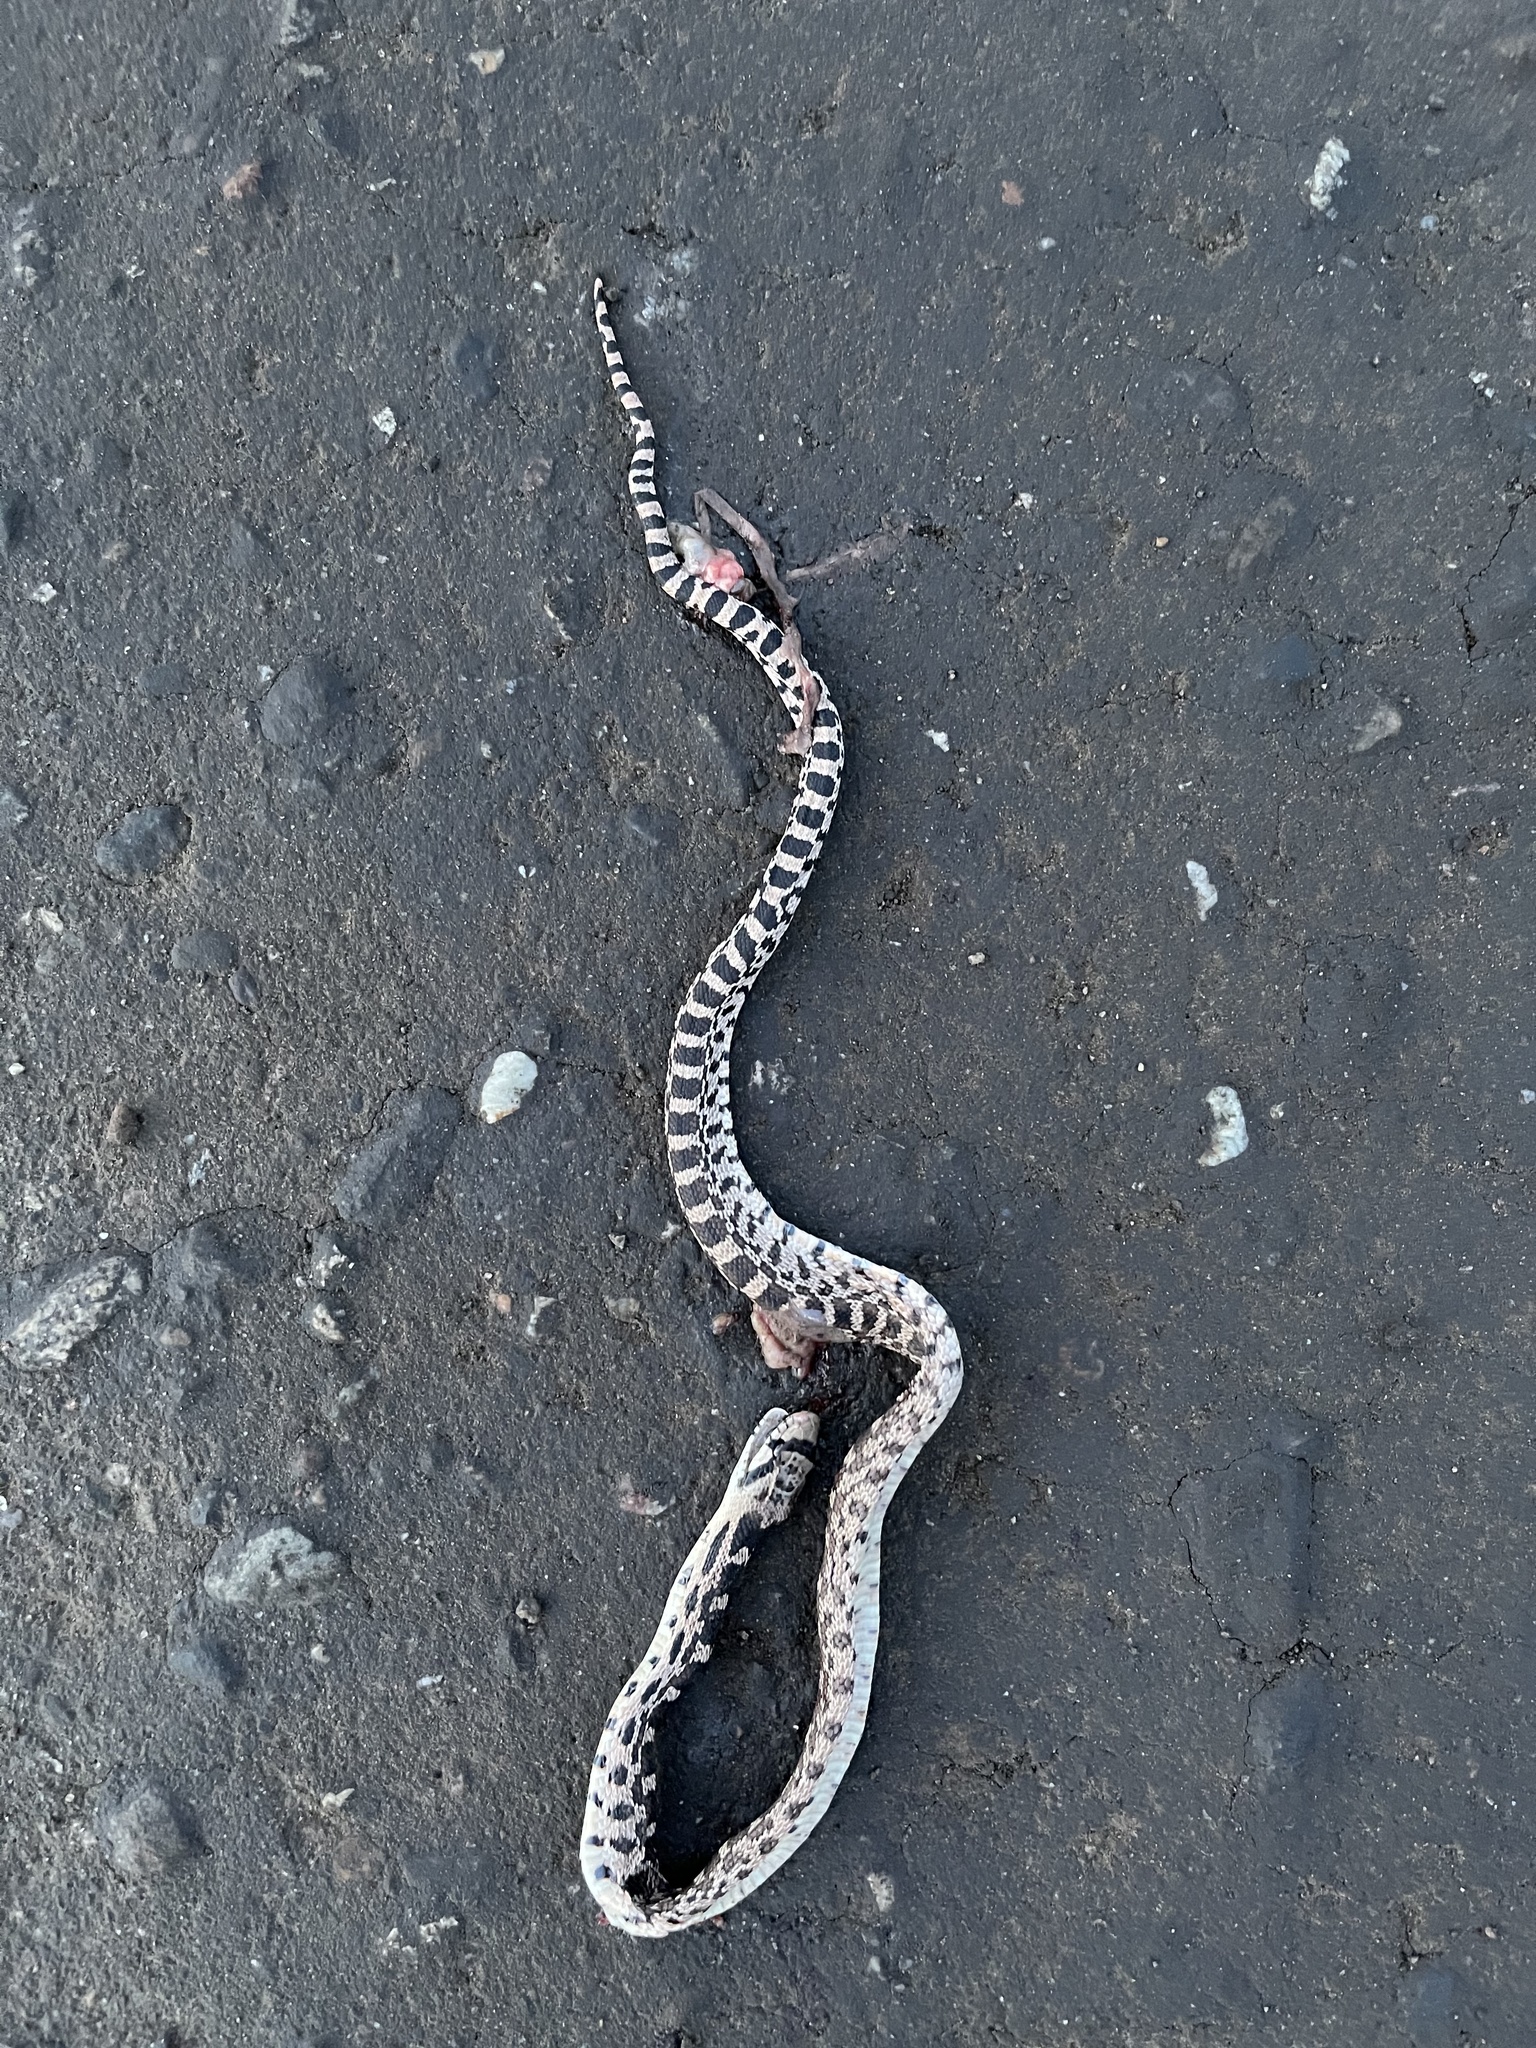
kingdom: Animalia
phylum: Chordata
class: Squamata
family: Colubridae
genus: Pituophis
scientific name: Pituophis catenifer
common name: Gopher snake
